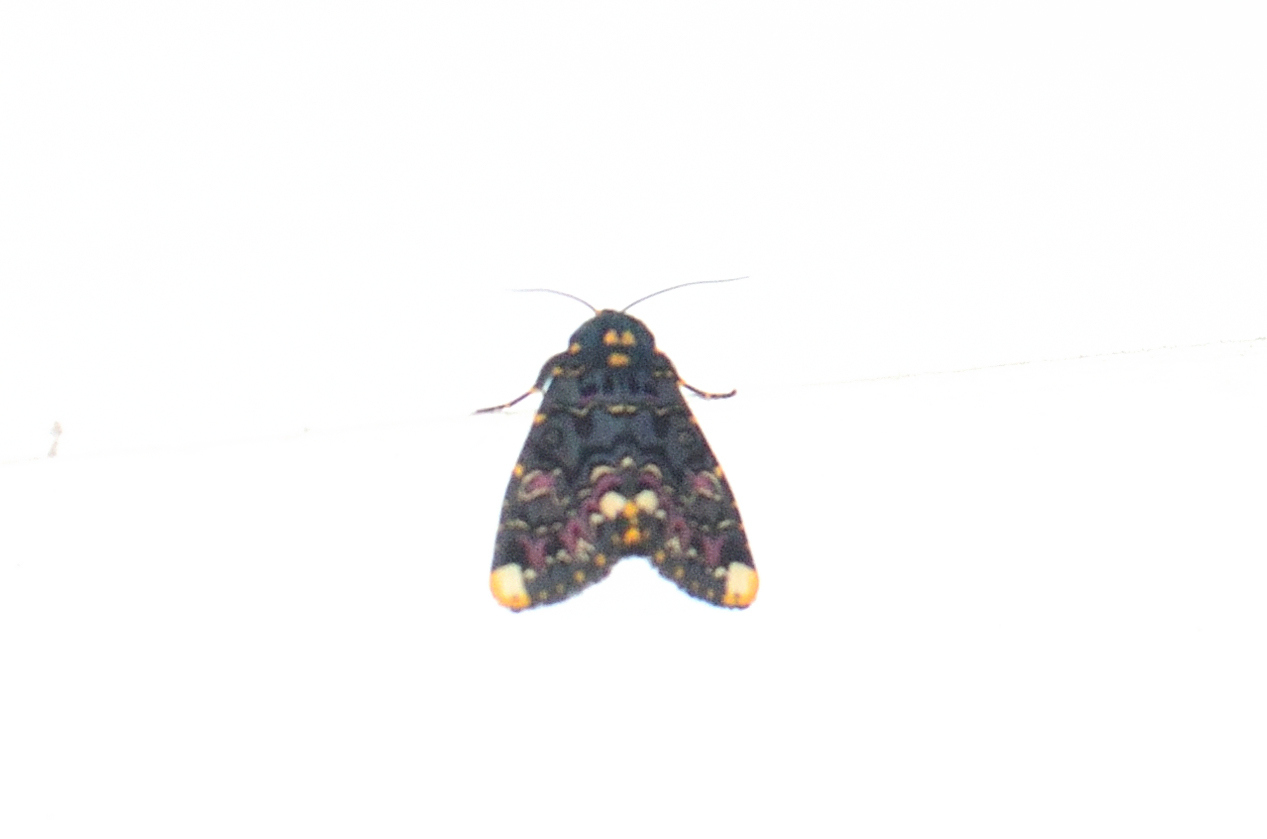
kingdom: Animalia
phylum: Arthropoda
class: Insecta
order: Lepidoptera
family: Noctuidae
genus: Polytela
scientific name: Polytela gloriosae
